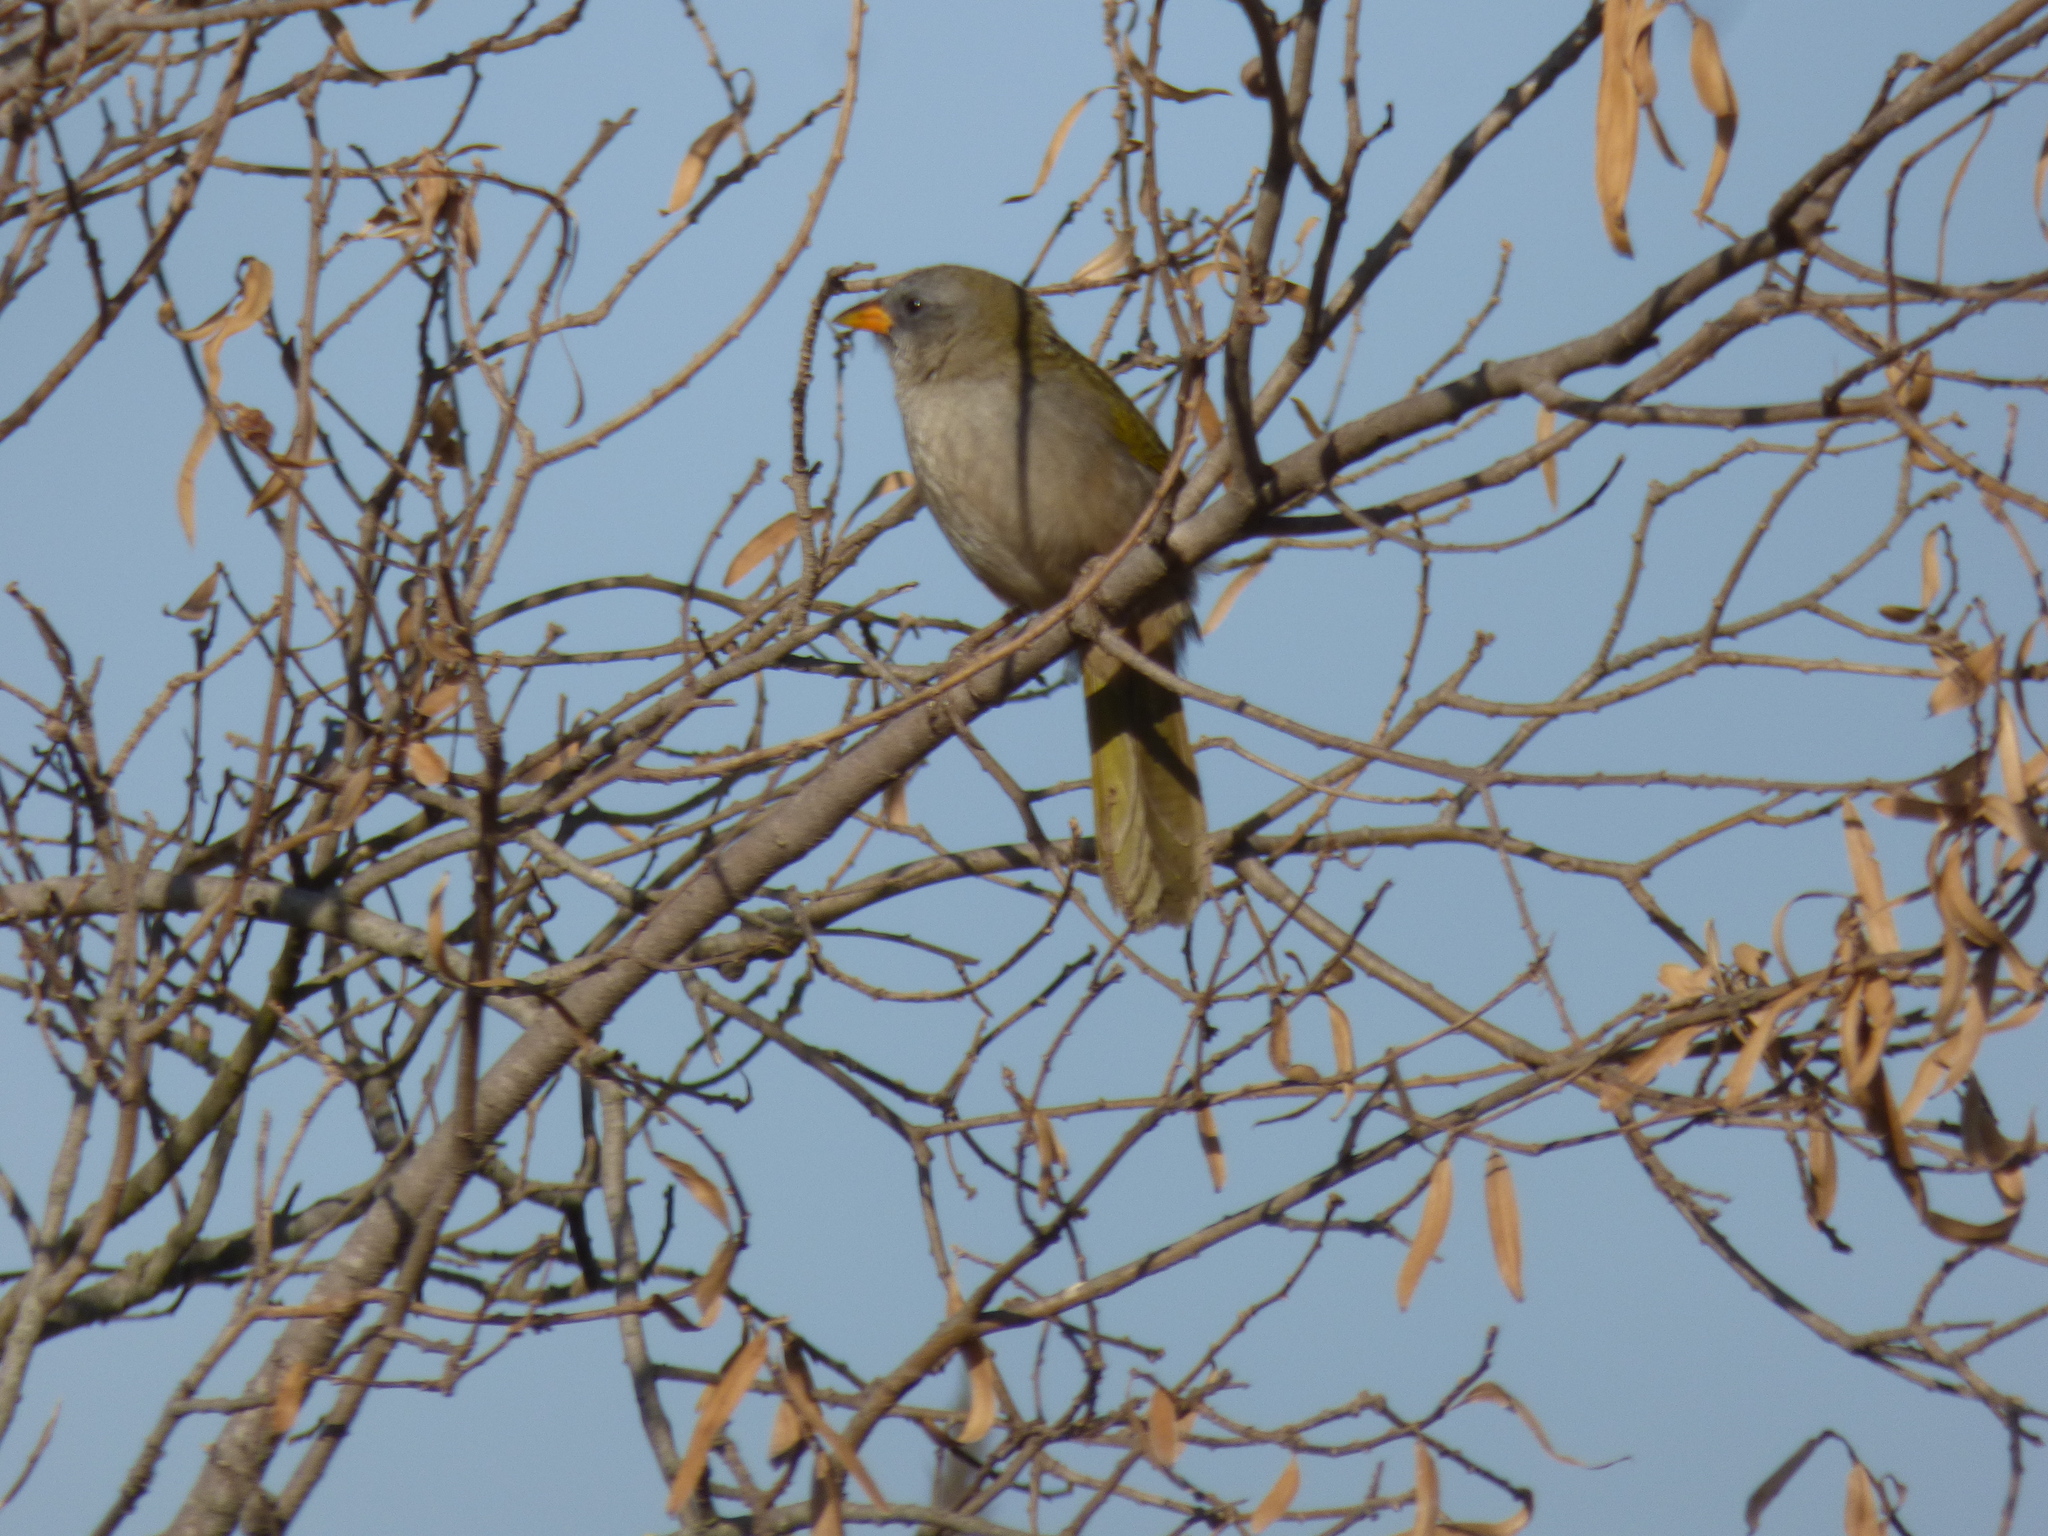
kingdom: Animalia
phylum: Chordata
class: Aves
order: Passeriformes
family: Thraupidae
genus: Embernagra
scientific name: Embernagra platensis
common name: Pampa finch
